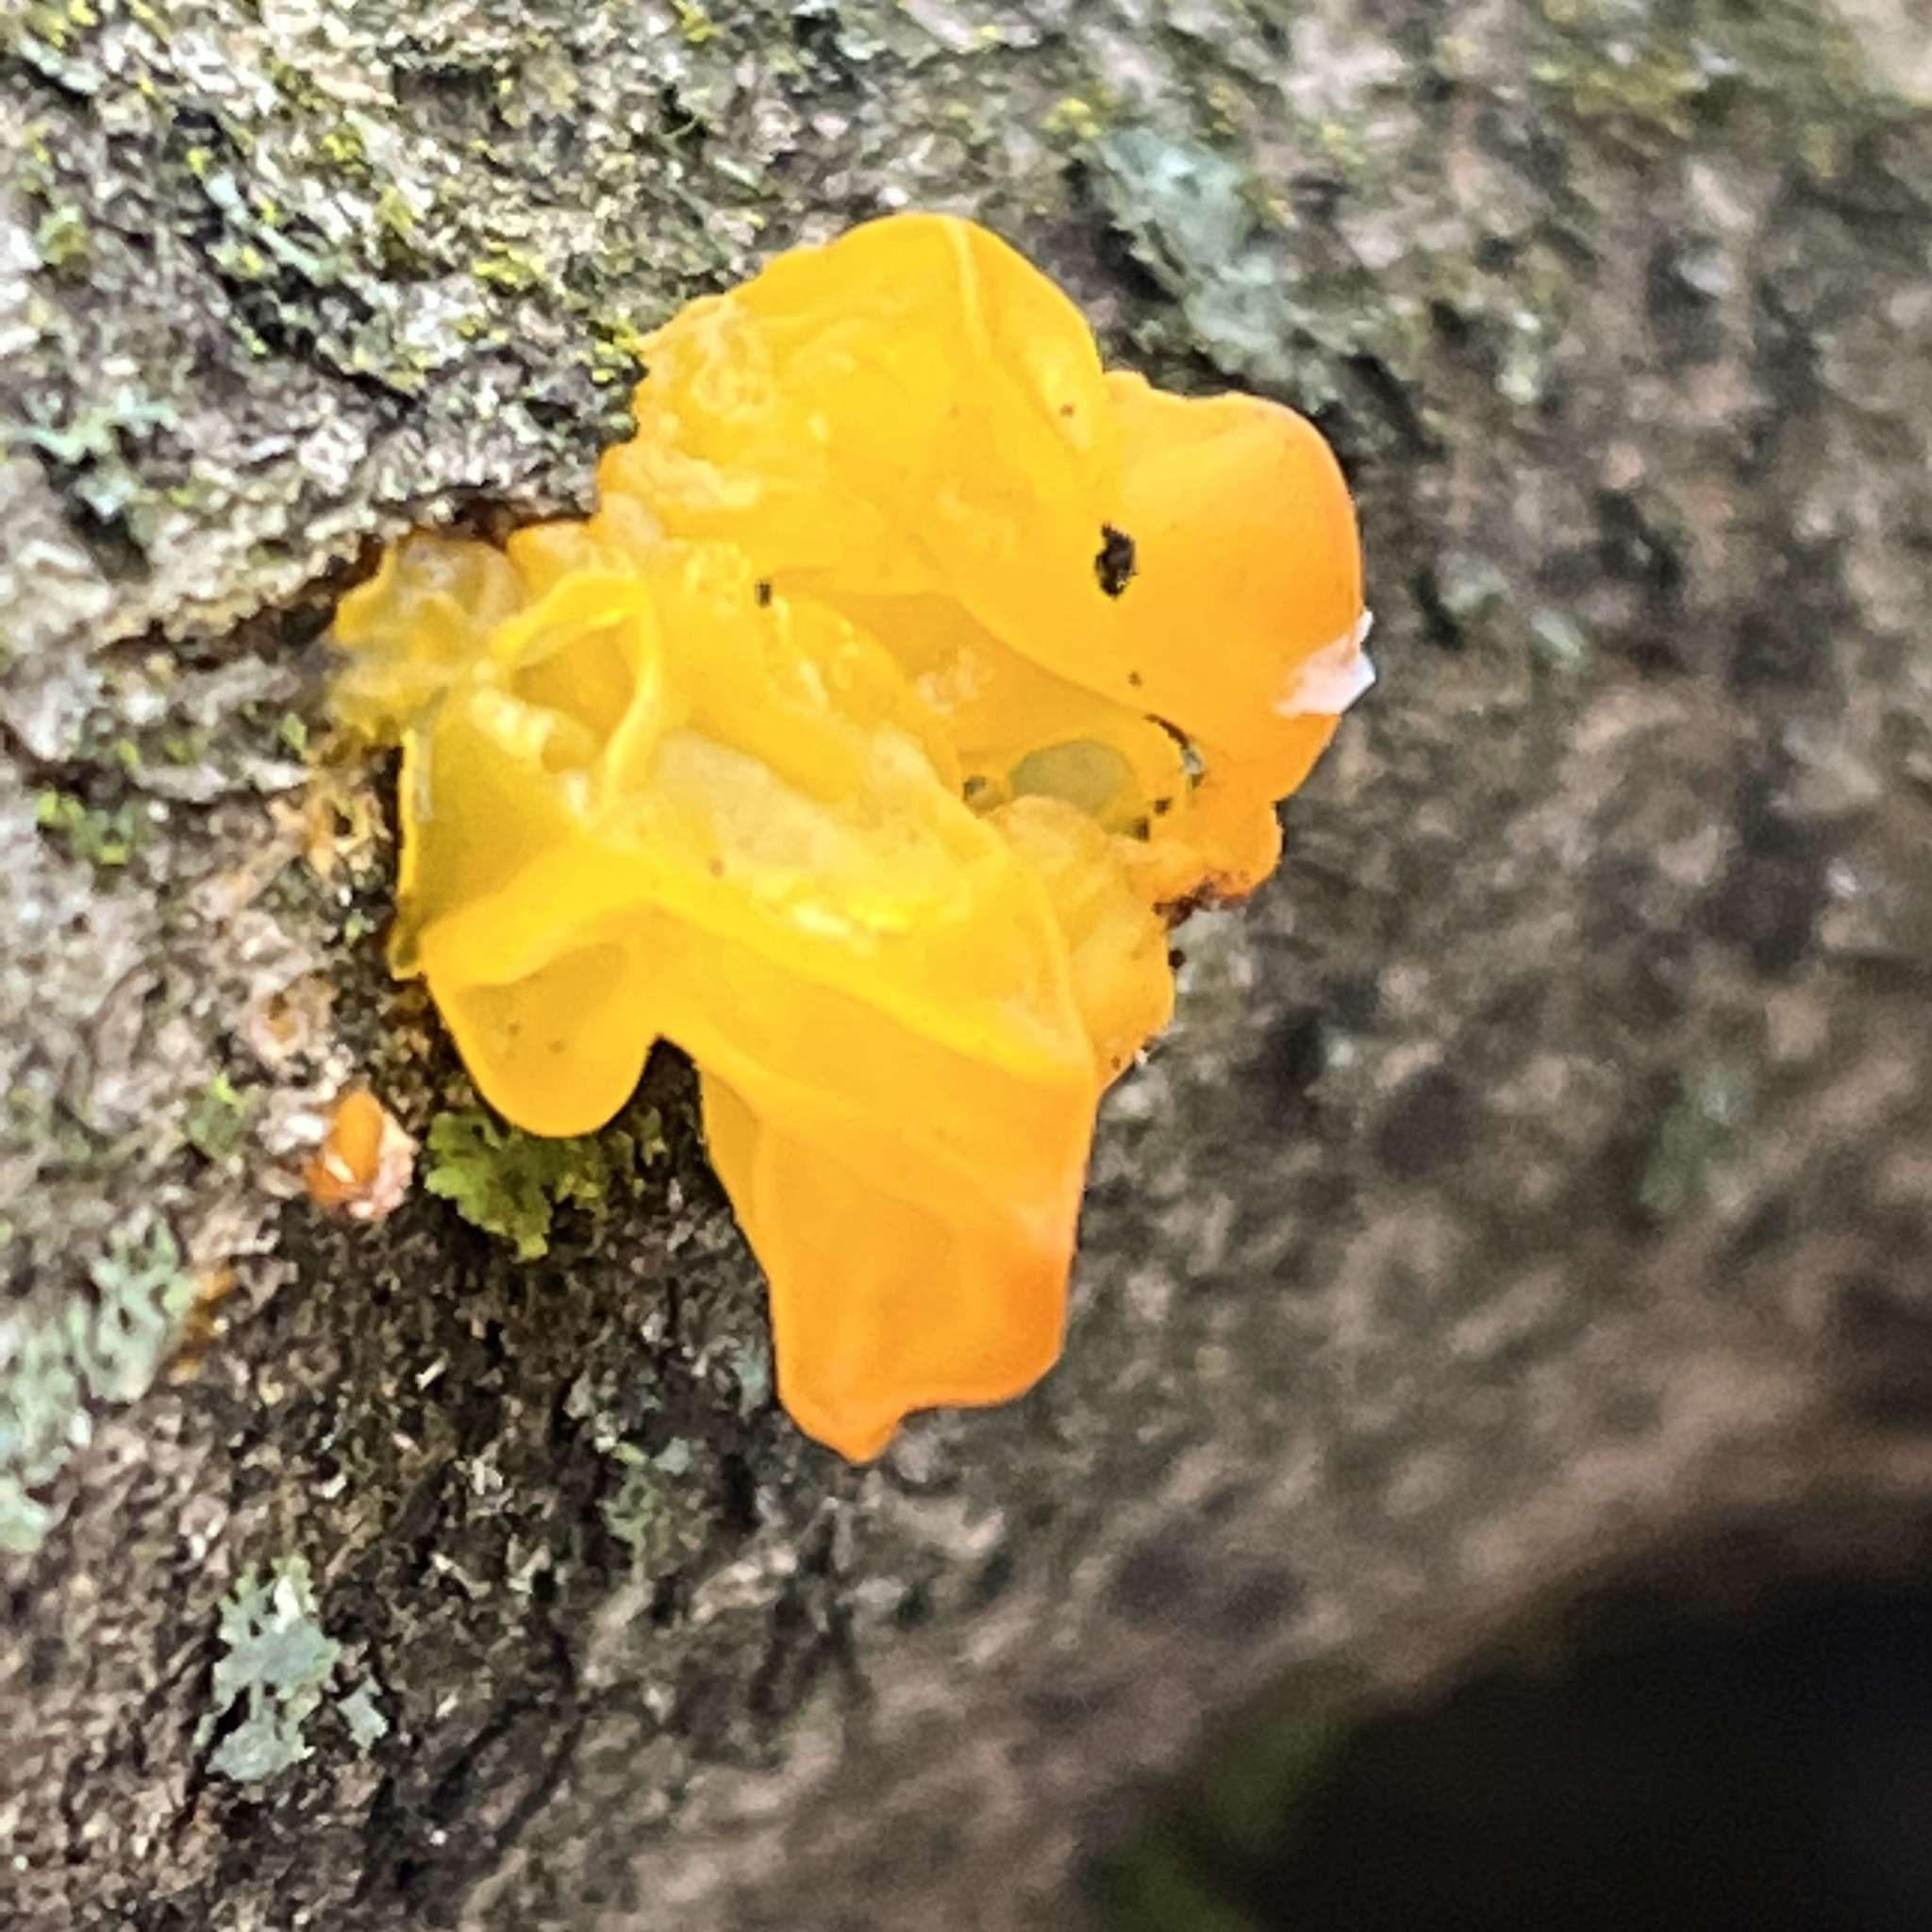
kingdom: Fungi
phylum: Basidiomycota
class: Tremellomycetes
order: Tremellales
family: Tremellaceae
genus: Tremella
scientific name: Tremella mesenterica
